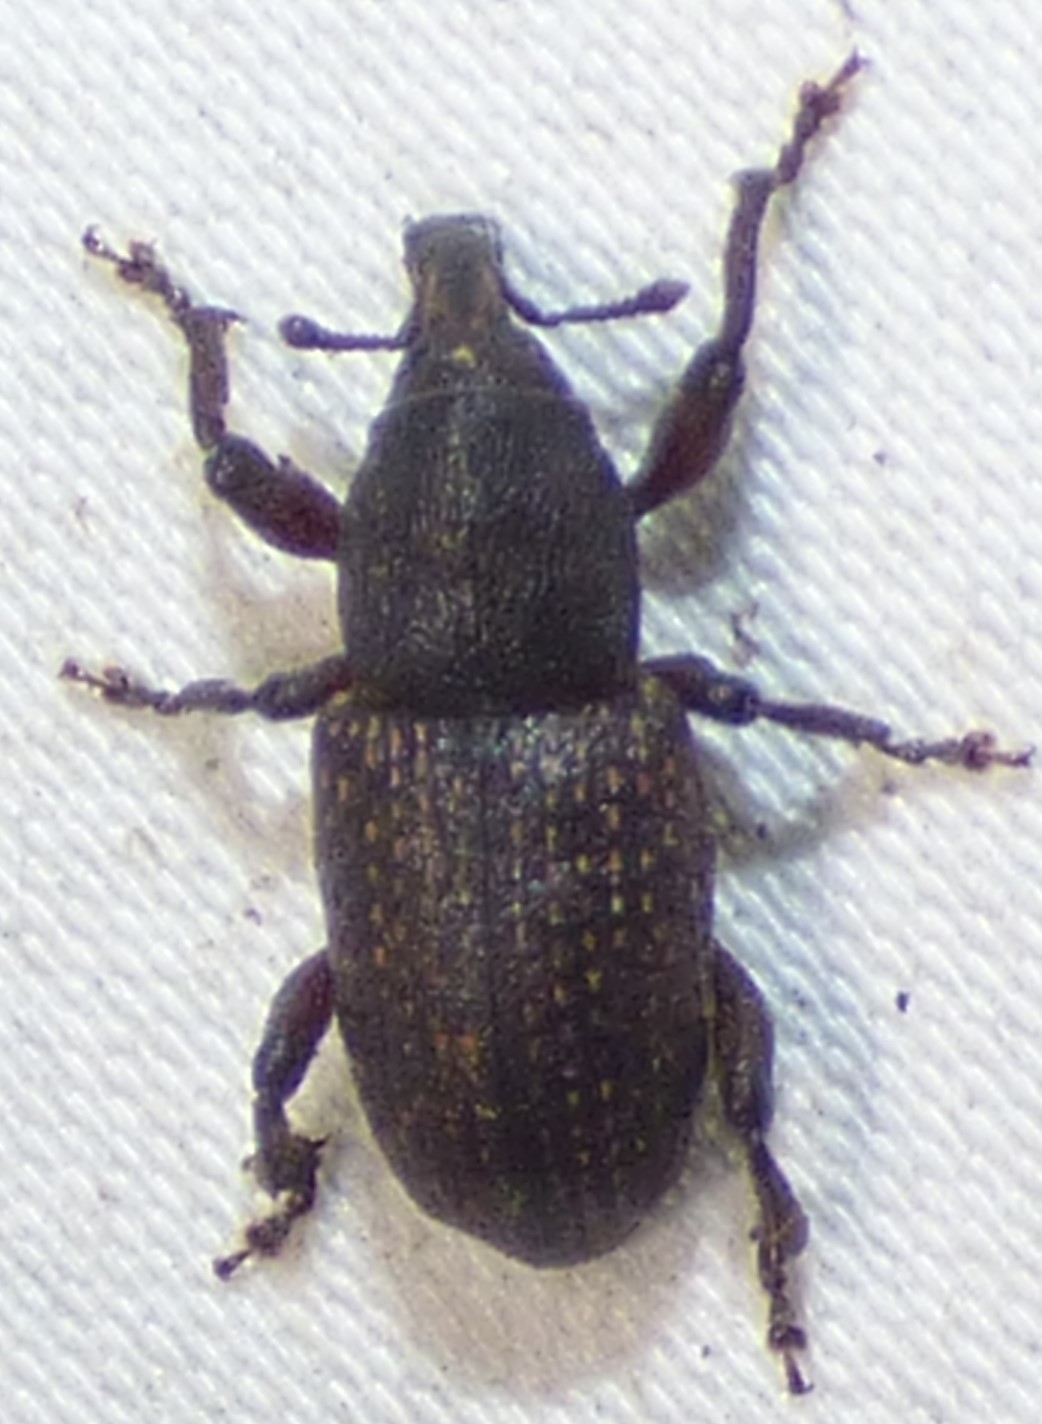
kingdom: Animalia
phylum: Arthropoda
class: Insecta
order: Coleoptera
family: Curculionidae
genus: Pachylobius
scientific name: Pachylobius picivorus
